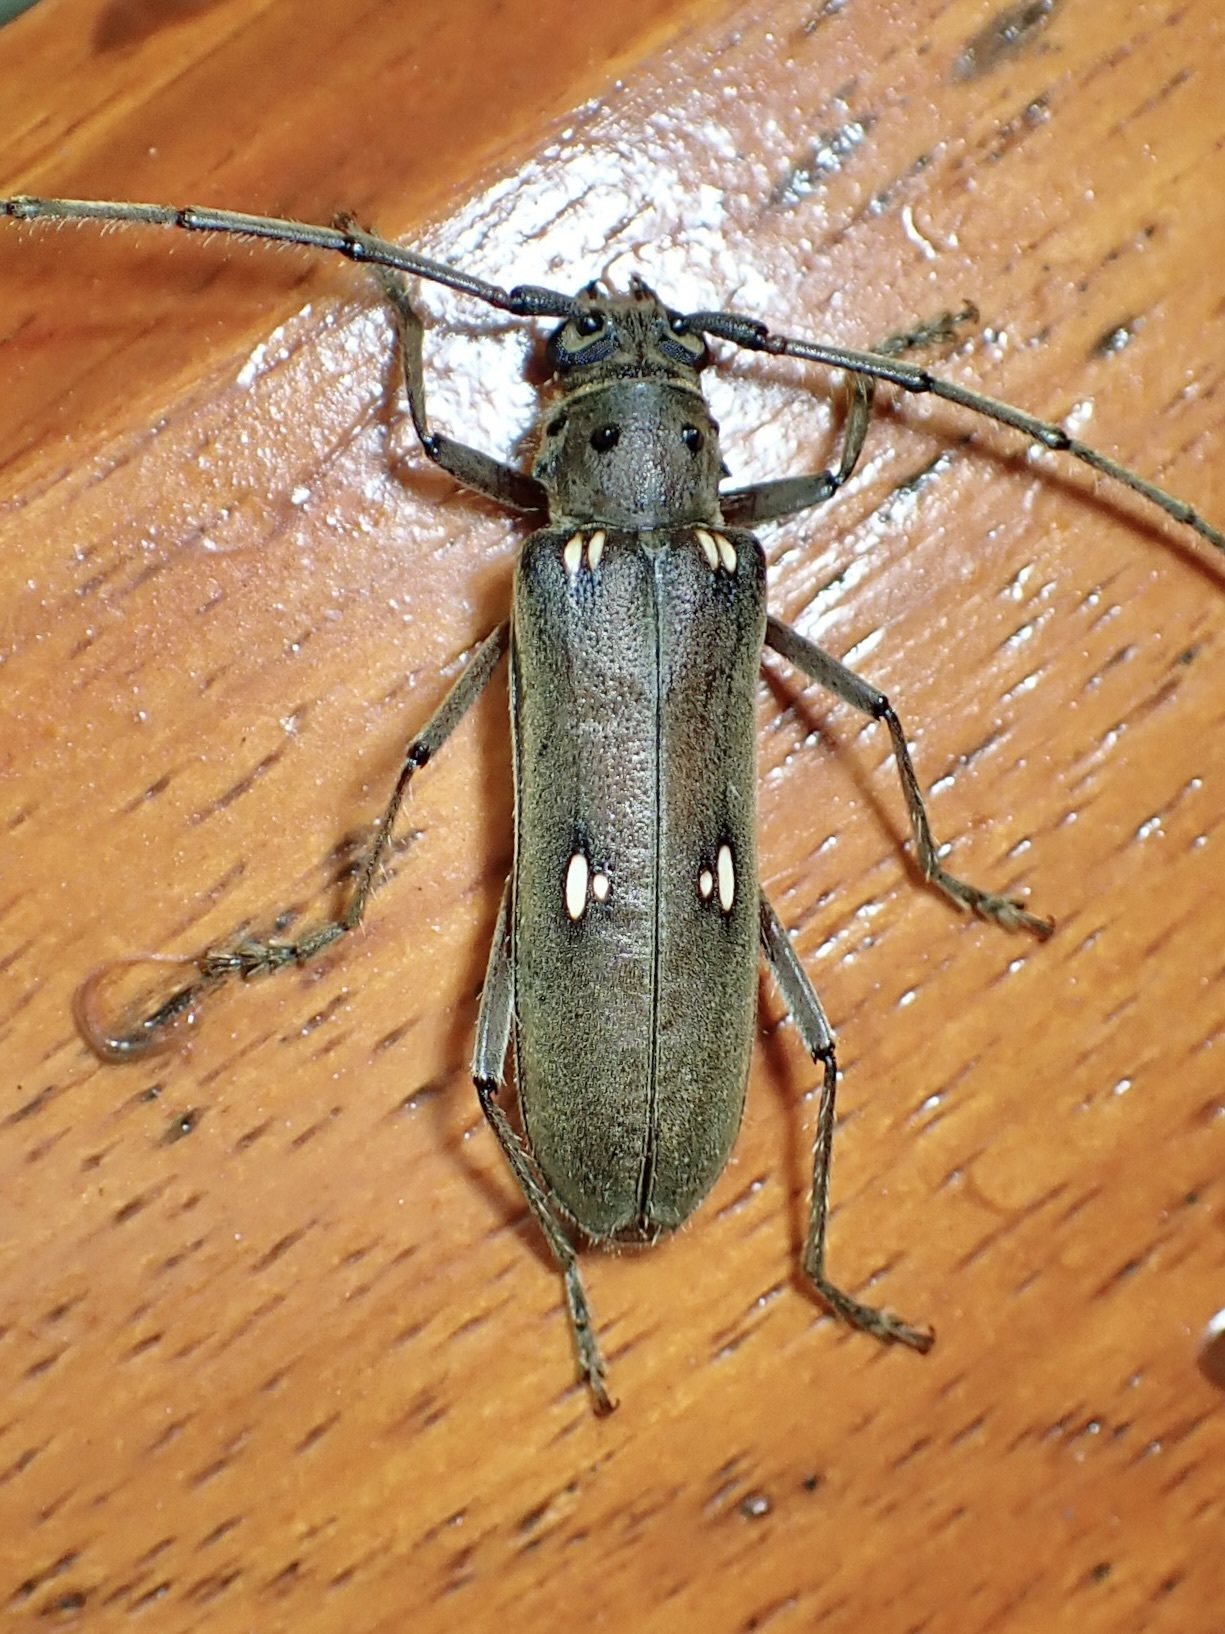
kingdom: Animalia
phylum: Arthropoda
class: Insecta
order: Coleoptera
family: Cerambycidae
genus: Pantomallus
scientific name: Pantomallus fuligineus
